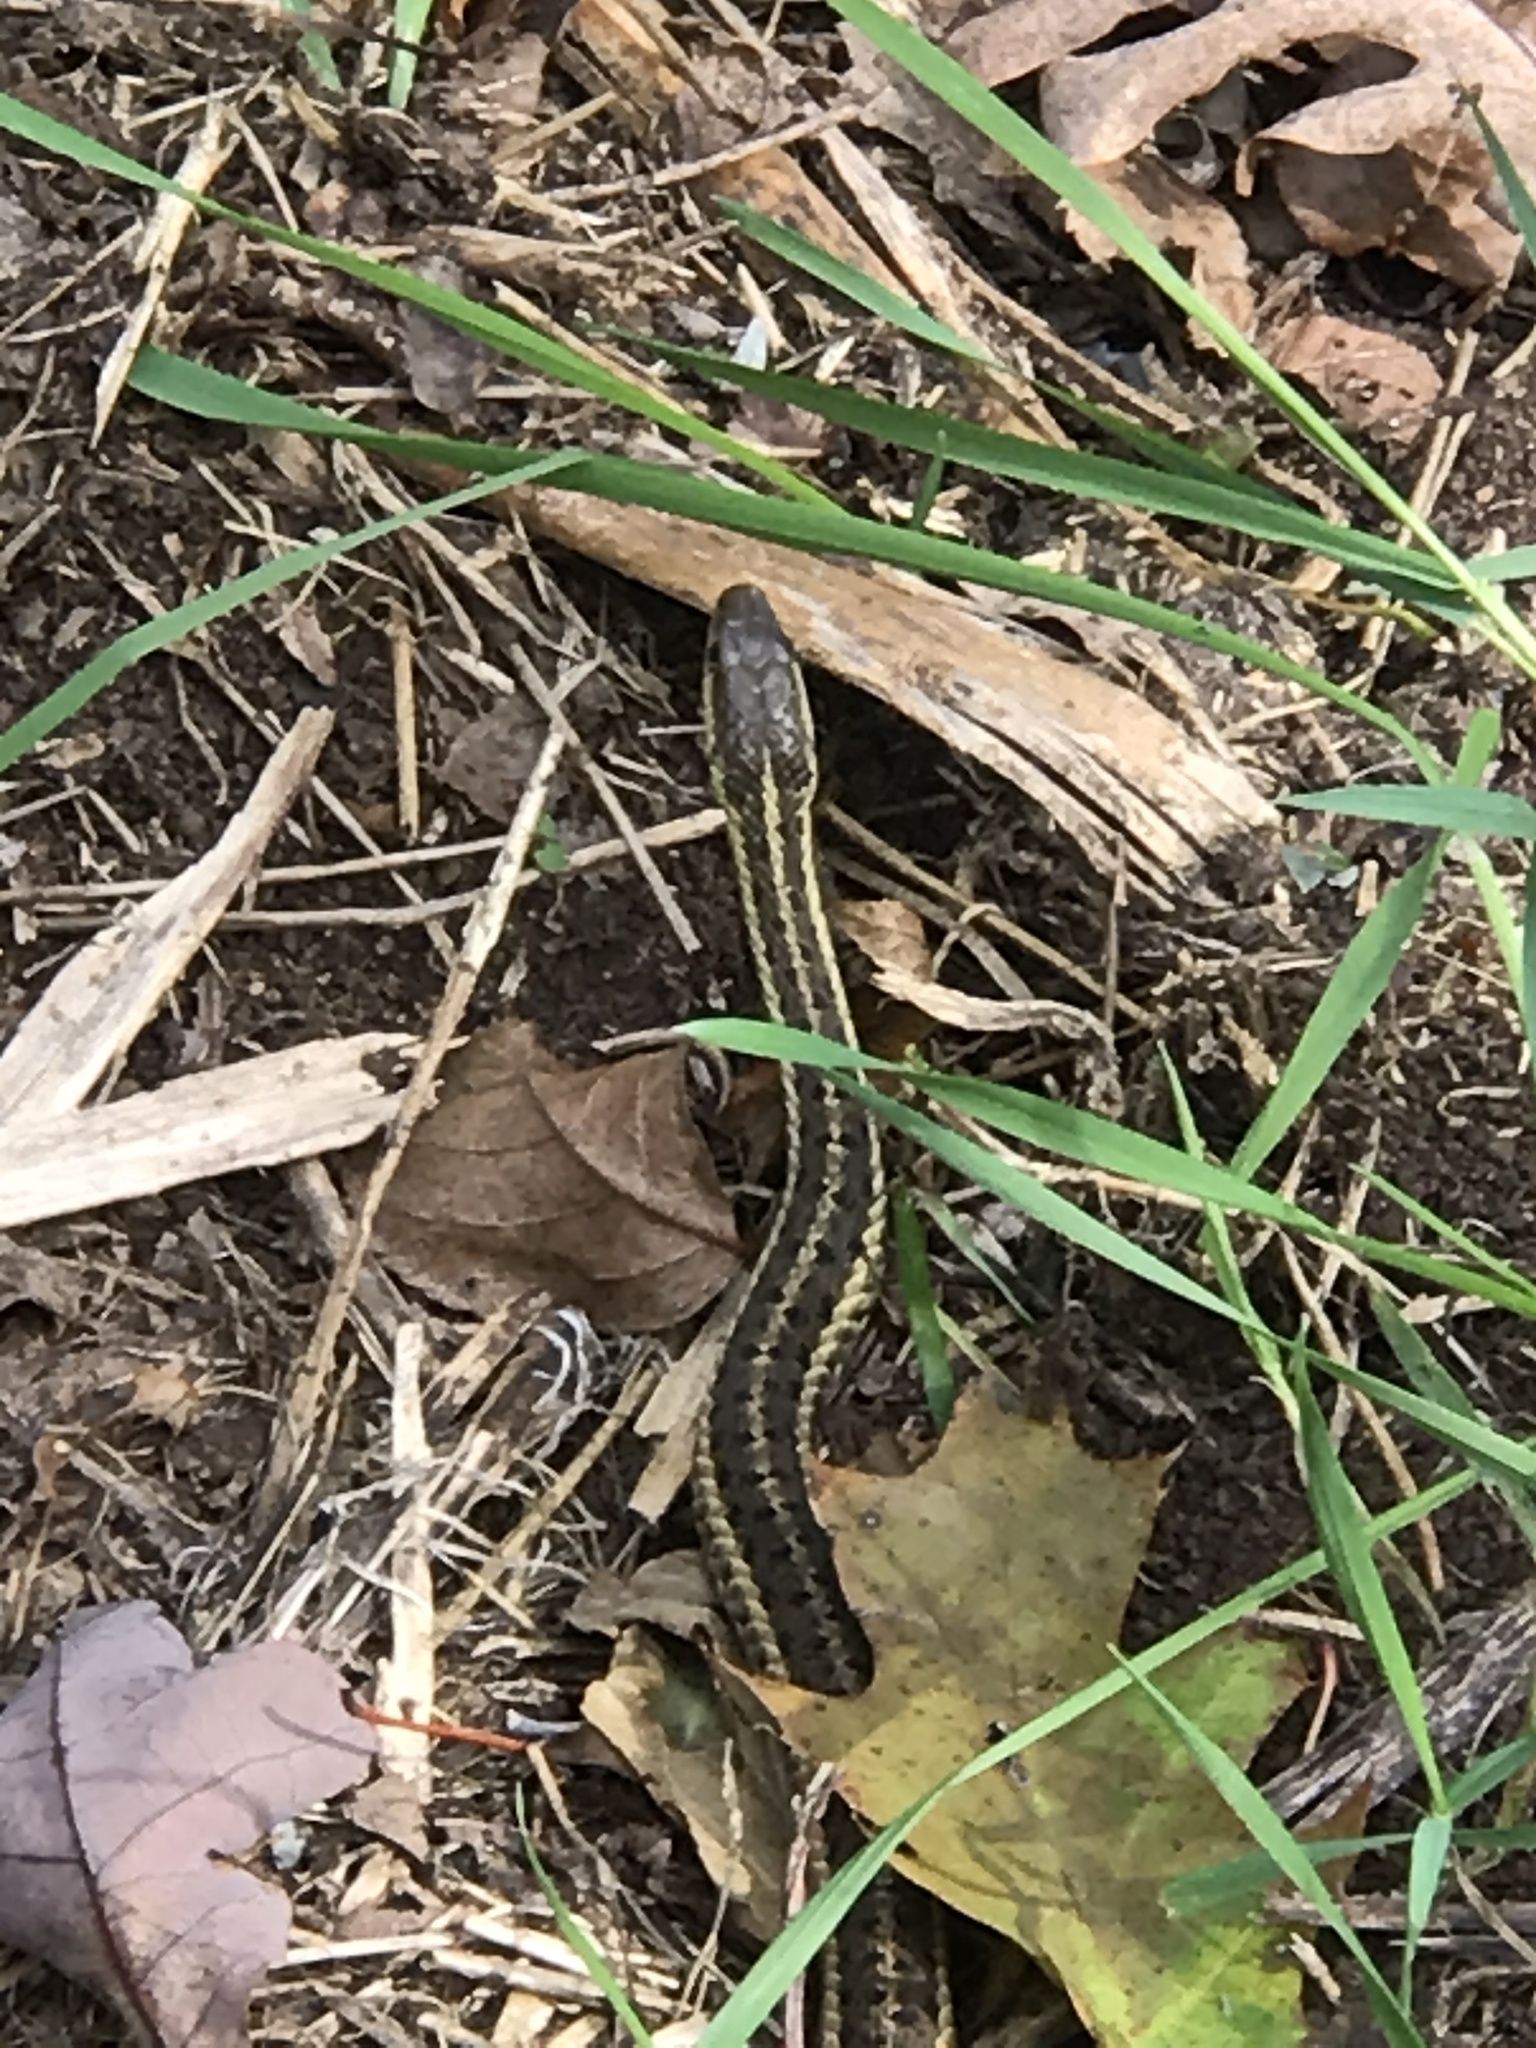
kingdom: Animalia
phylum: Chordata
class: Squamata
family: Colubridae
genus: Thamnophis
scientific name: Thamnophis sirtalis
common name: Common garter snake
